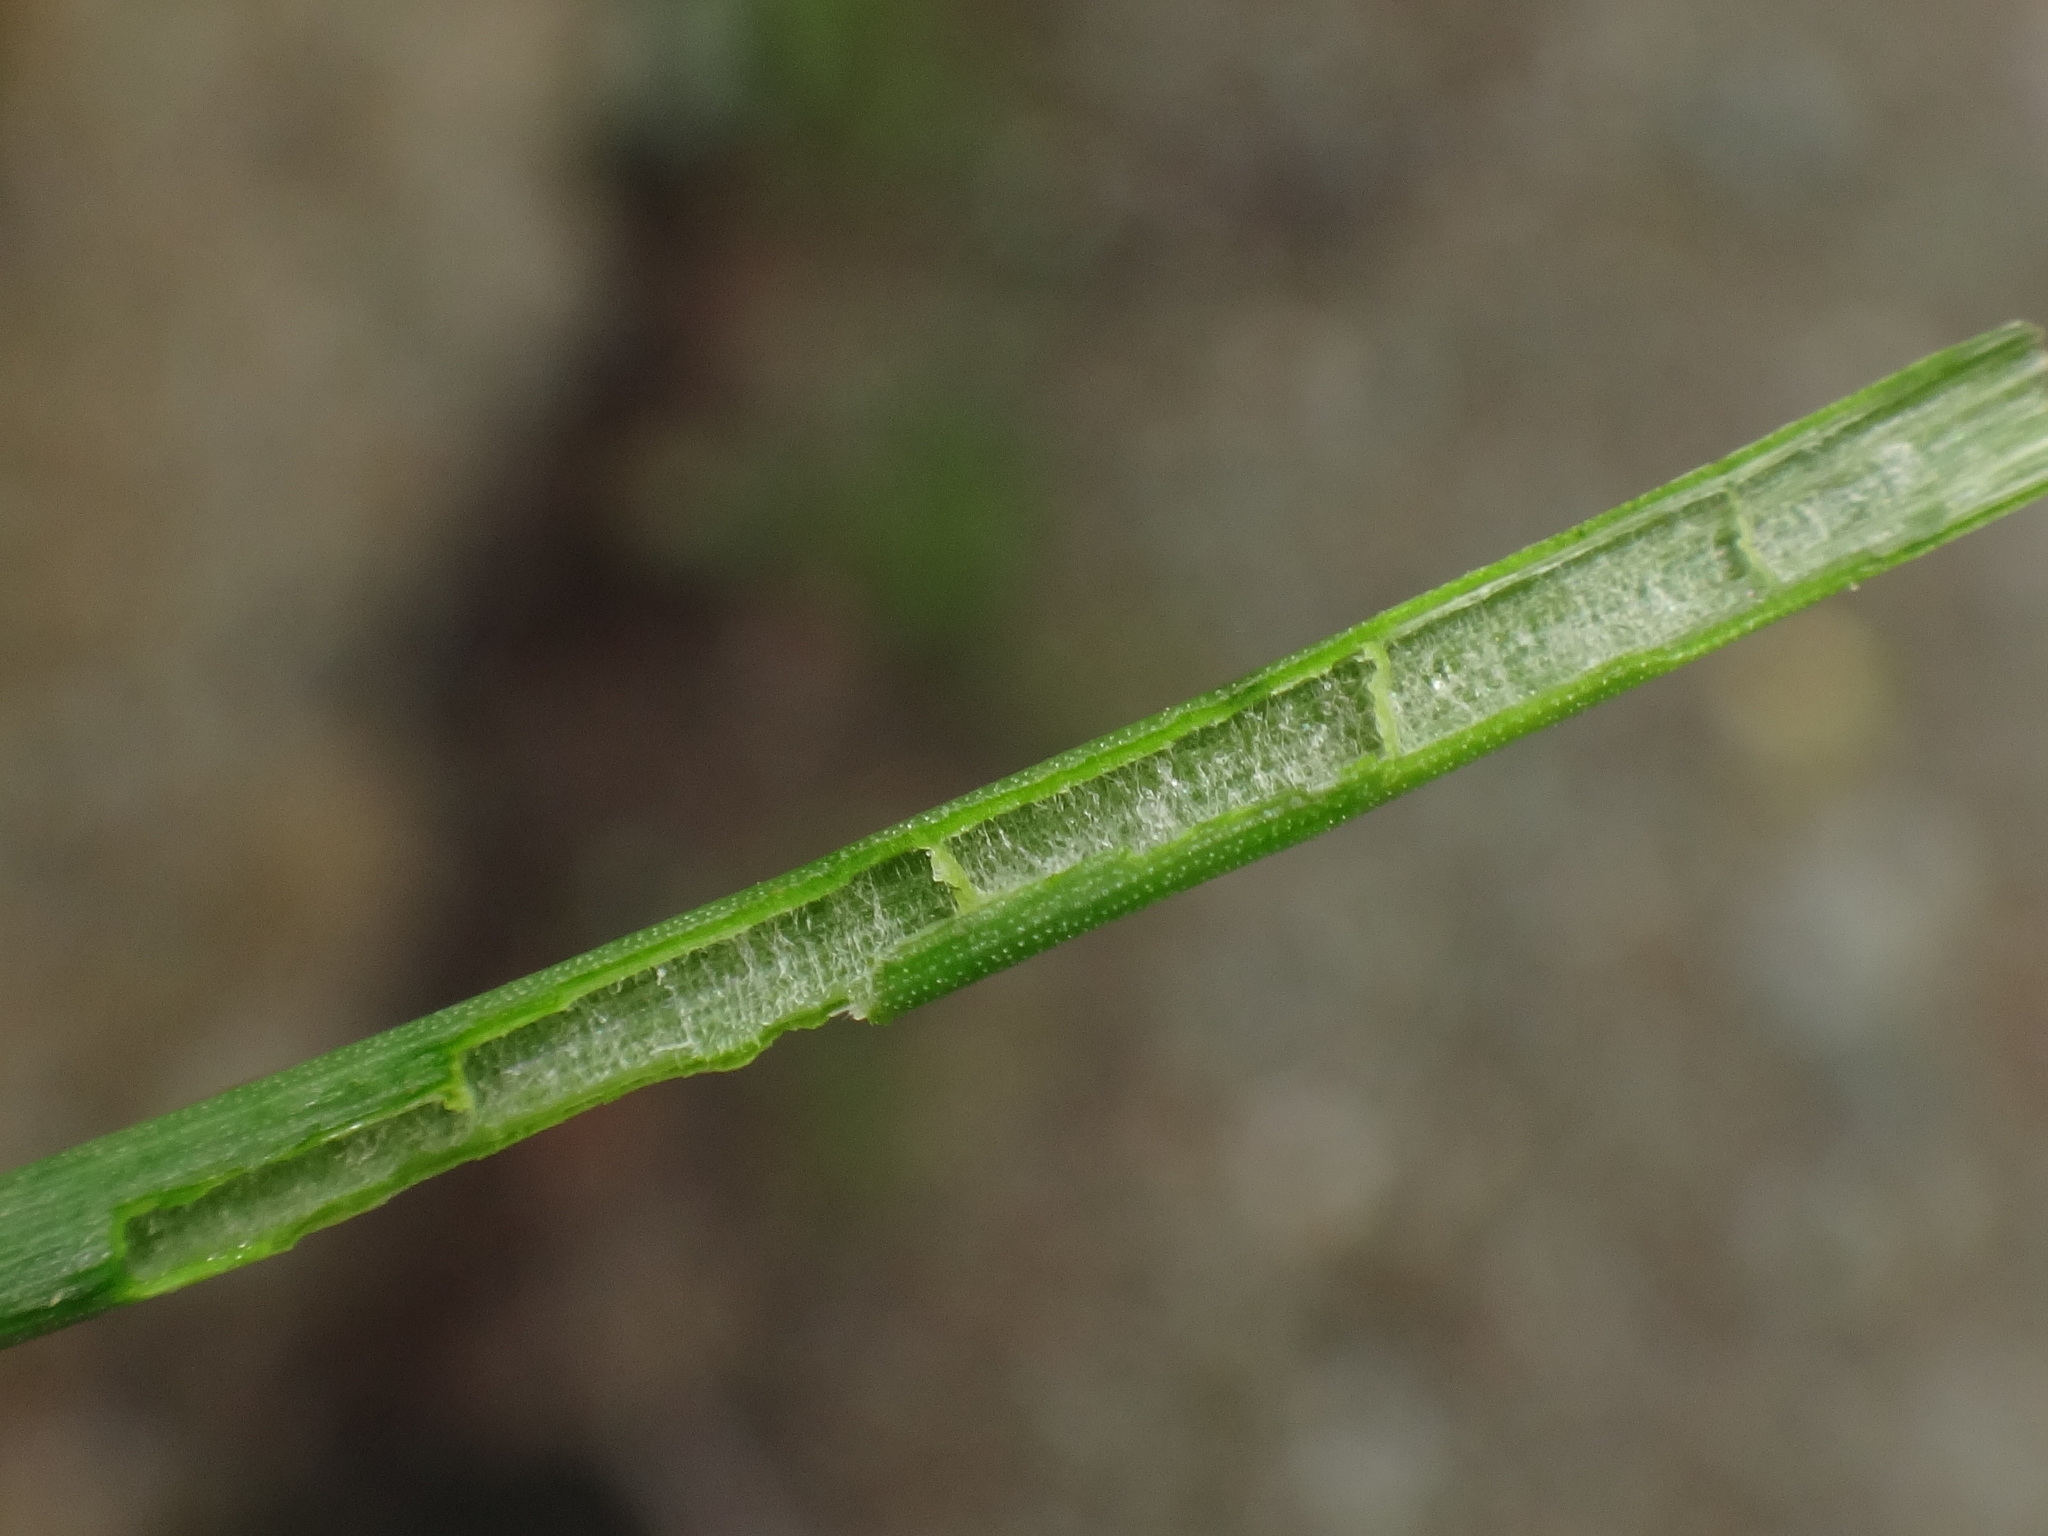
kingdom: Plantae
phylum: Tracheophyta
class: Liliopsida
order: Poales
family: Juncaceae
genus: Juncus
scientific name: Juncus articulatus
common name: Jointed rush
